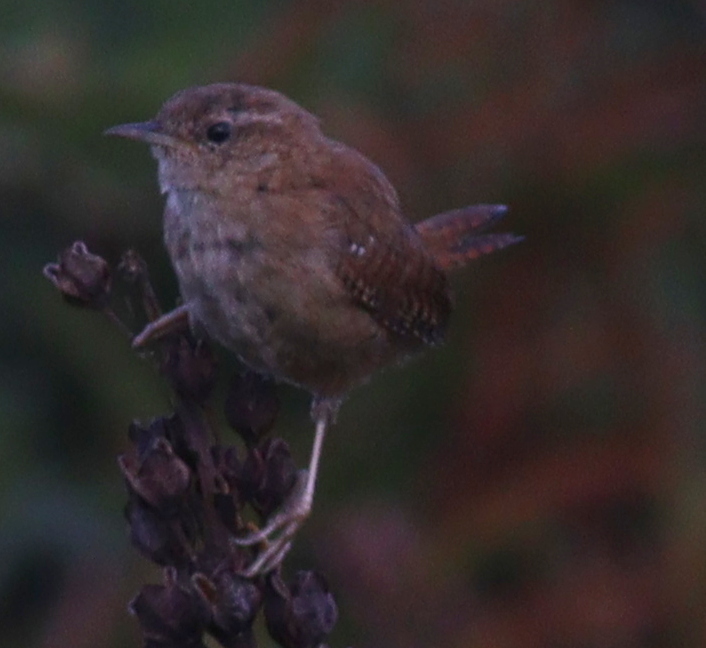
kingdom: Animalia
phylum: Chordata
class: Aves
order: Passeriformes
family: Troglodytidae
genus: Troglodytes
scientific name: Troglodytes troglodytes
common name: Eurasian wren
